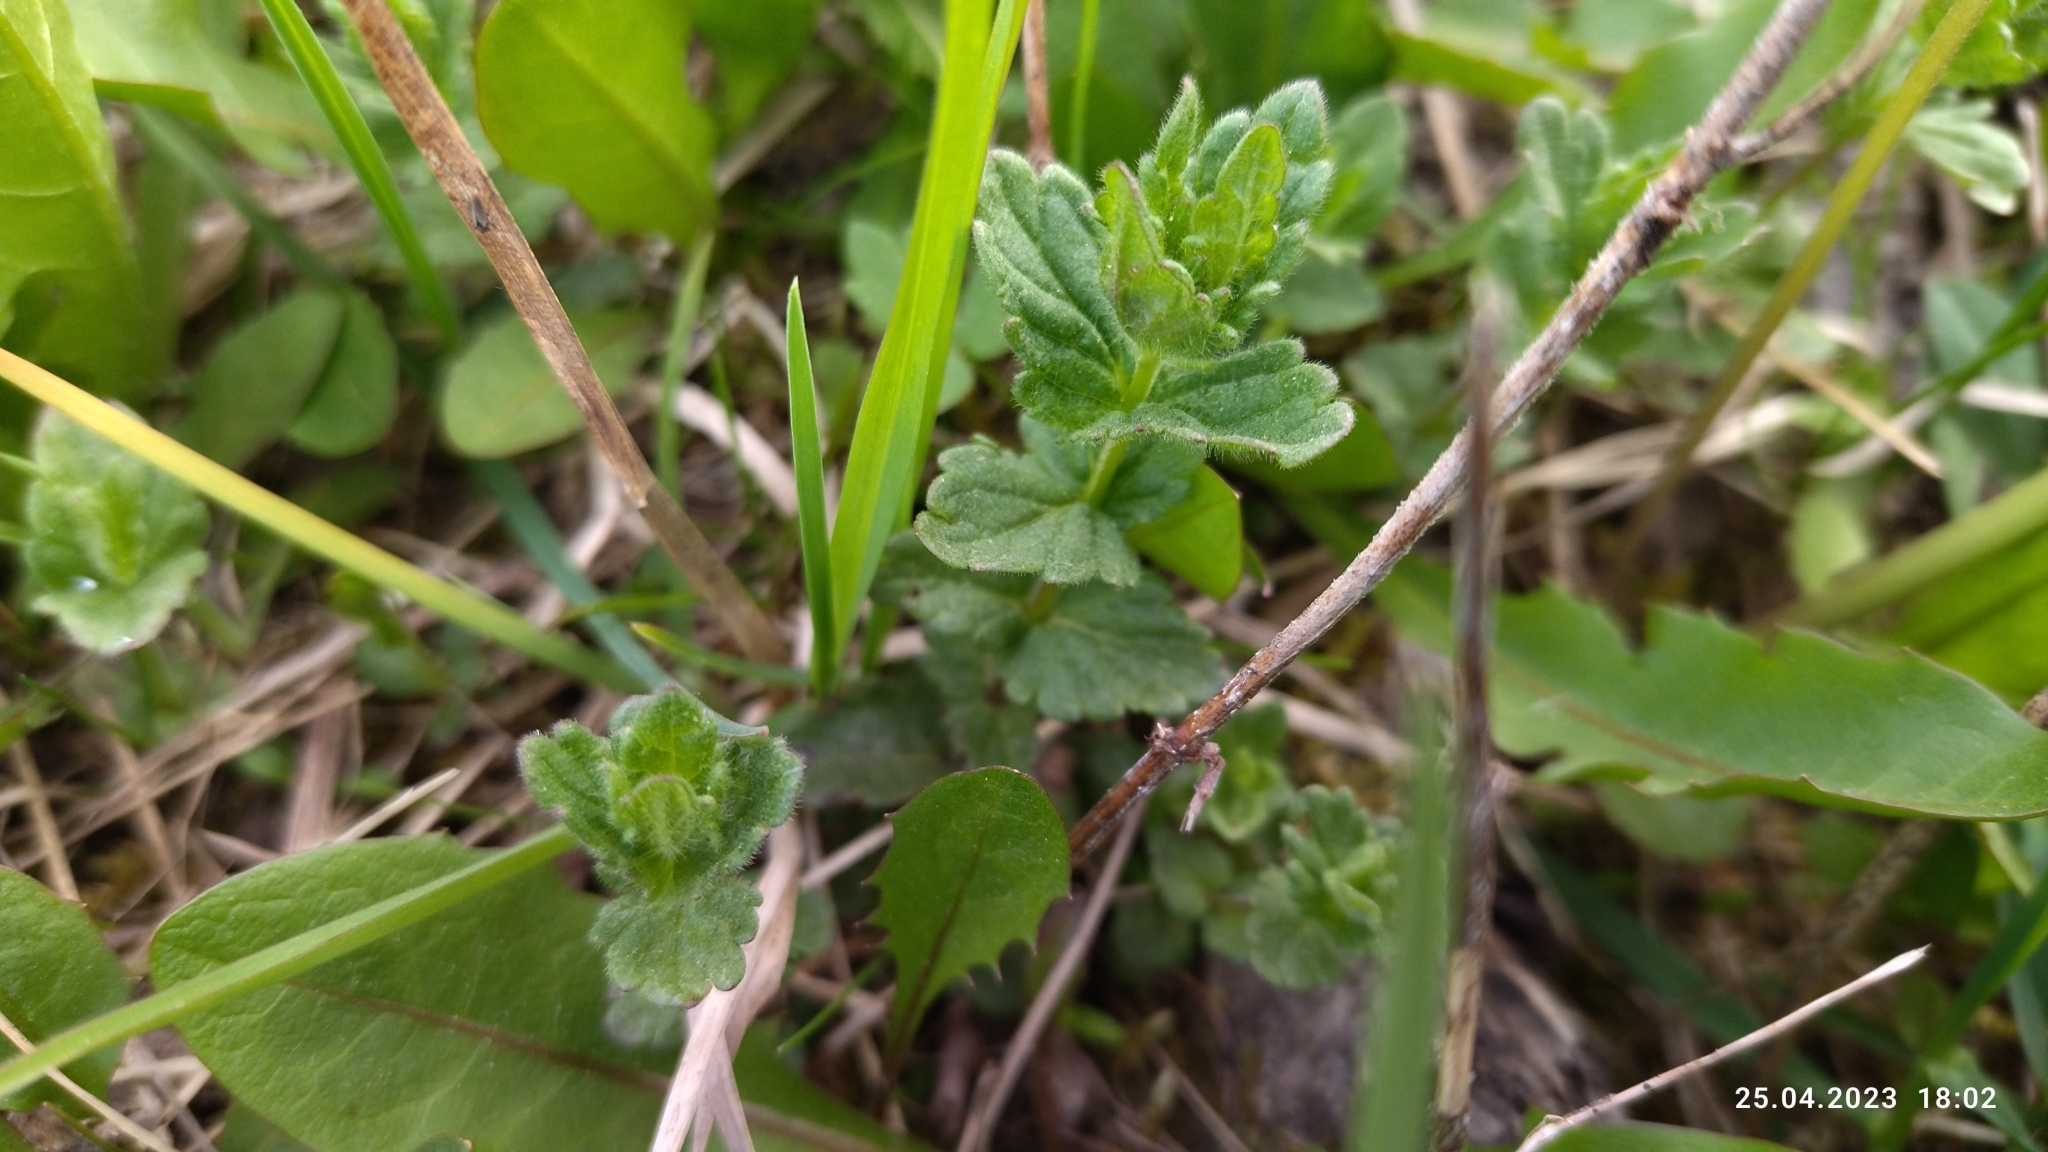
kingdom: Plantae
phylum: Tracheophyta
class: Magnoliopsida
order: Lamiales
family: Plantaginaceae
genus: Veronica
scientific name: Veronica chamaedrys
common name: Germander speedwell
